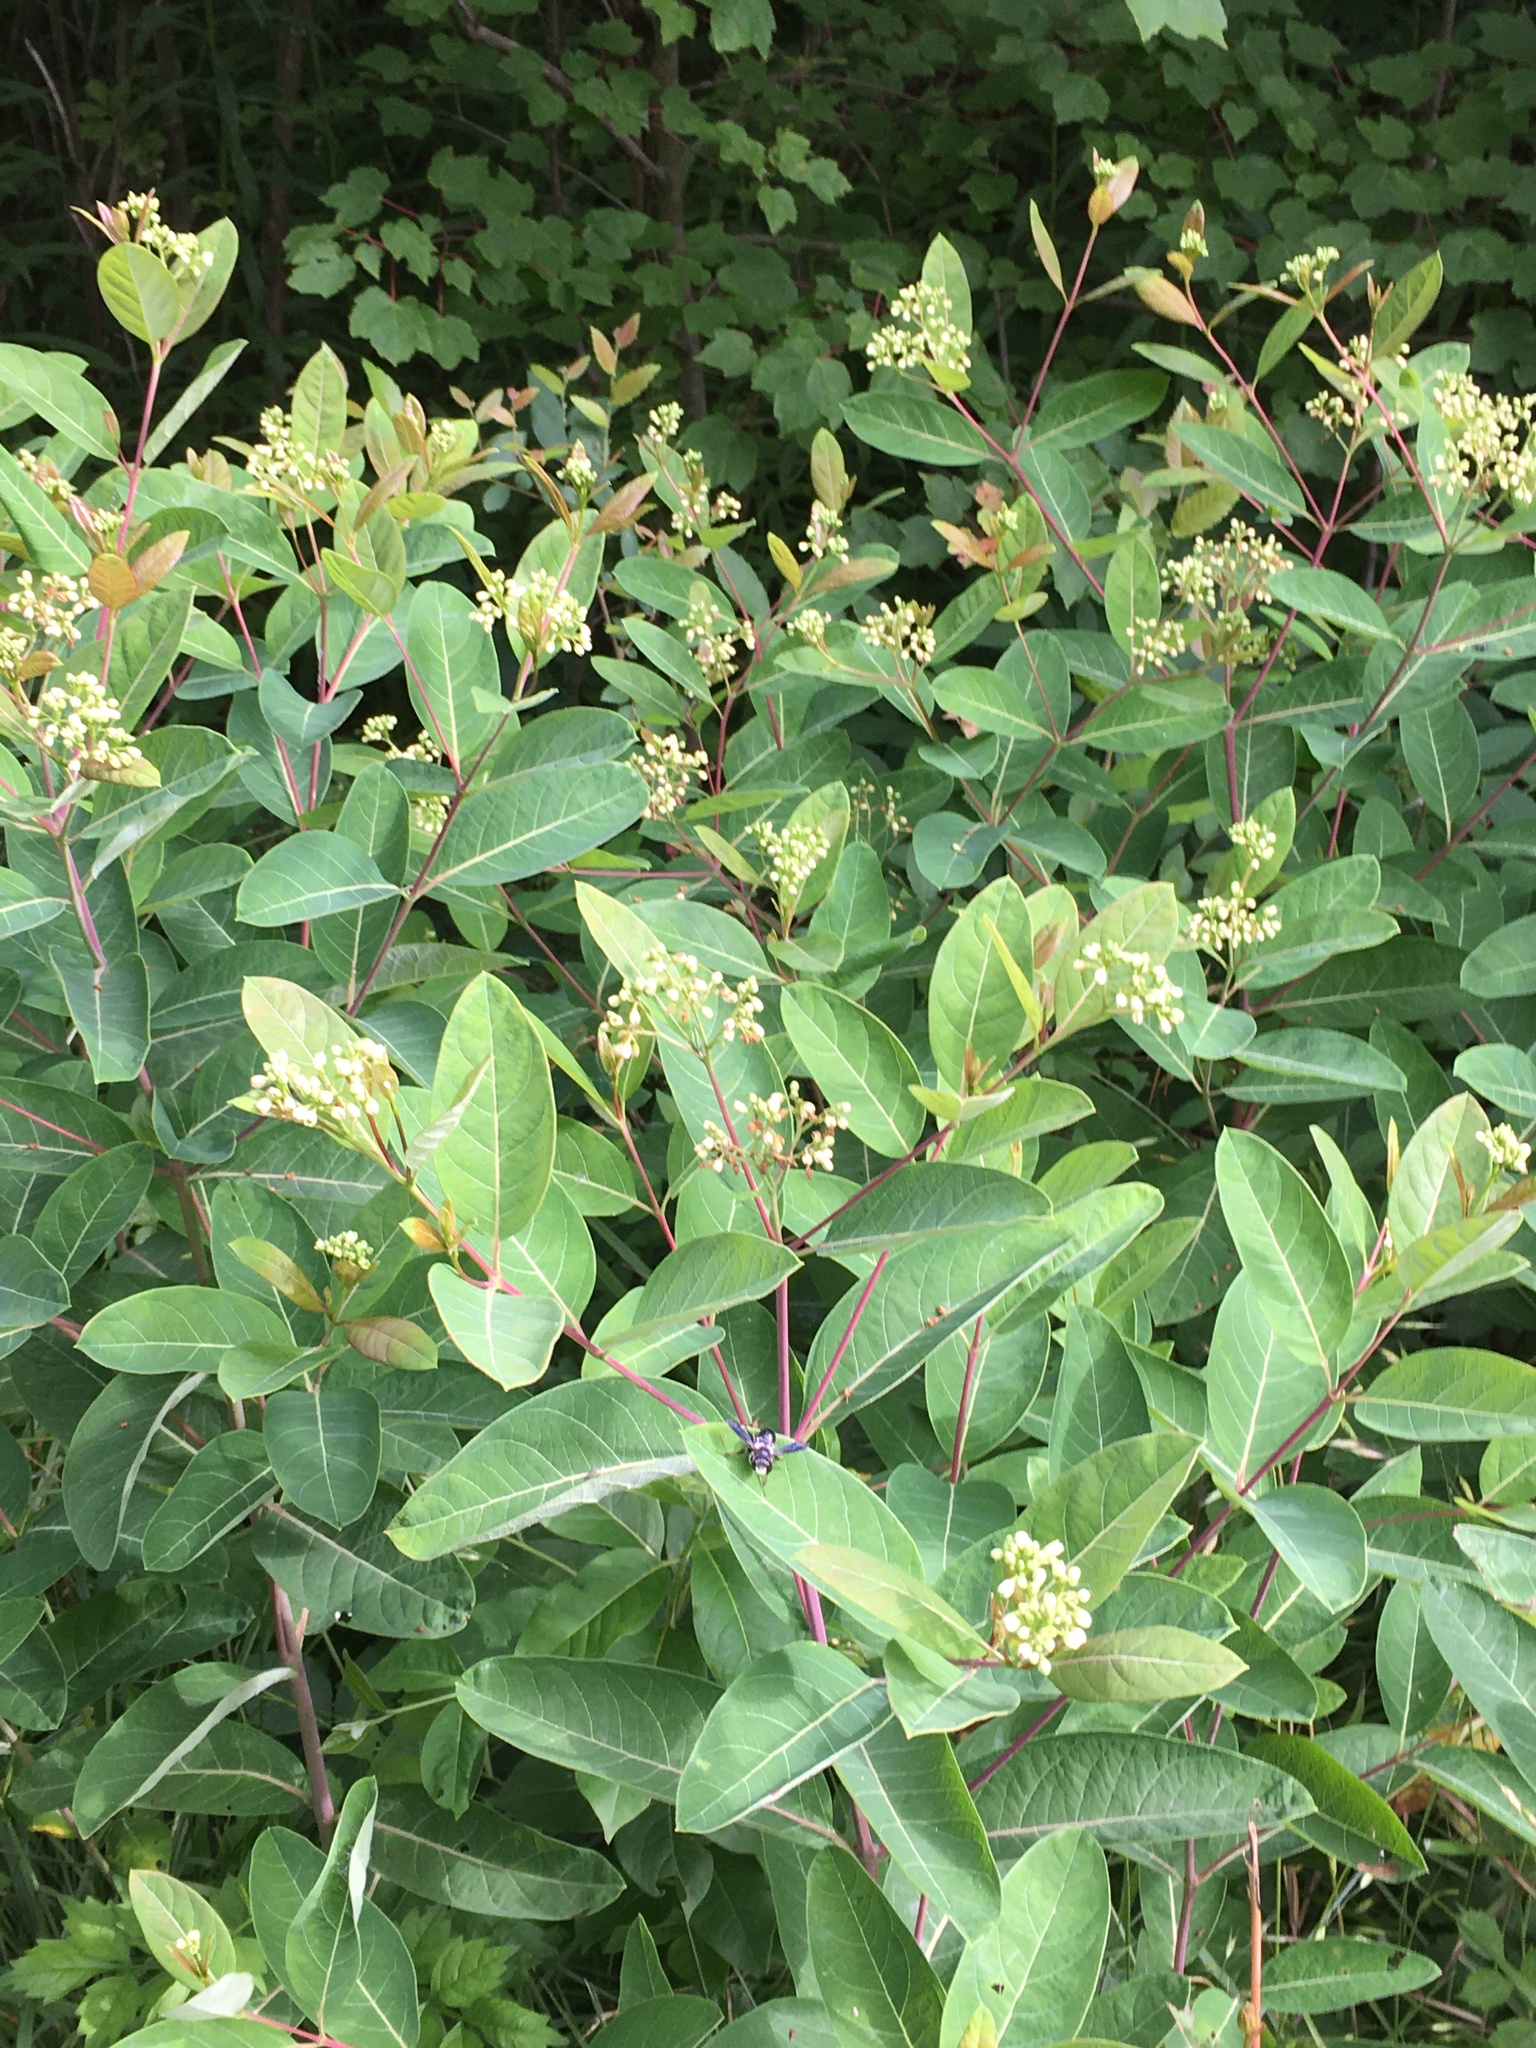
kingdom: Plantae
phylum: Tracheophyta
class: Magnoliopsida
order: Gentianales
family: Apocynaceae
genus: Apocynum
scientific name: Apocynum cannabinum
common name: Hemp dogbane
